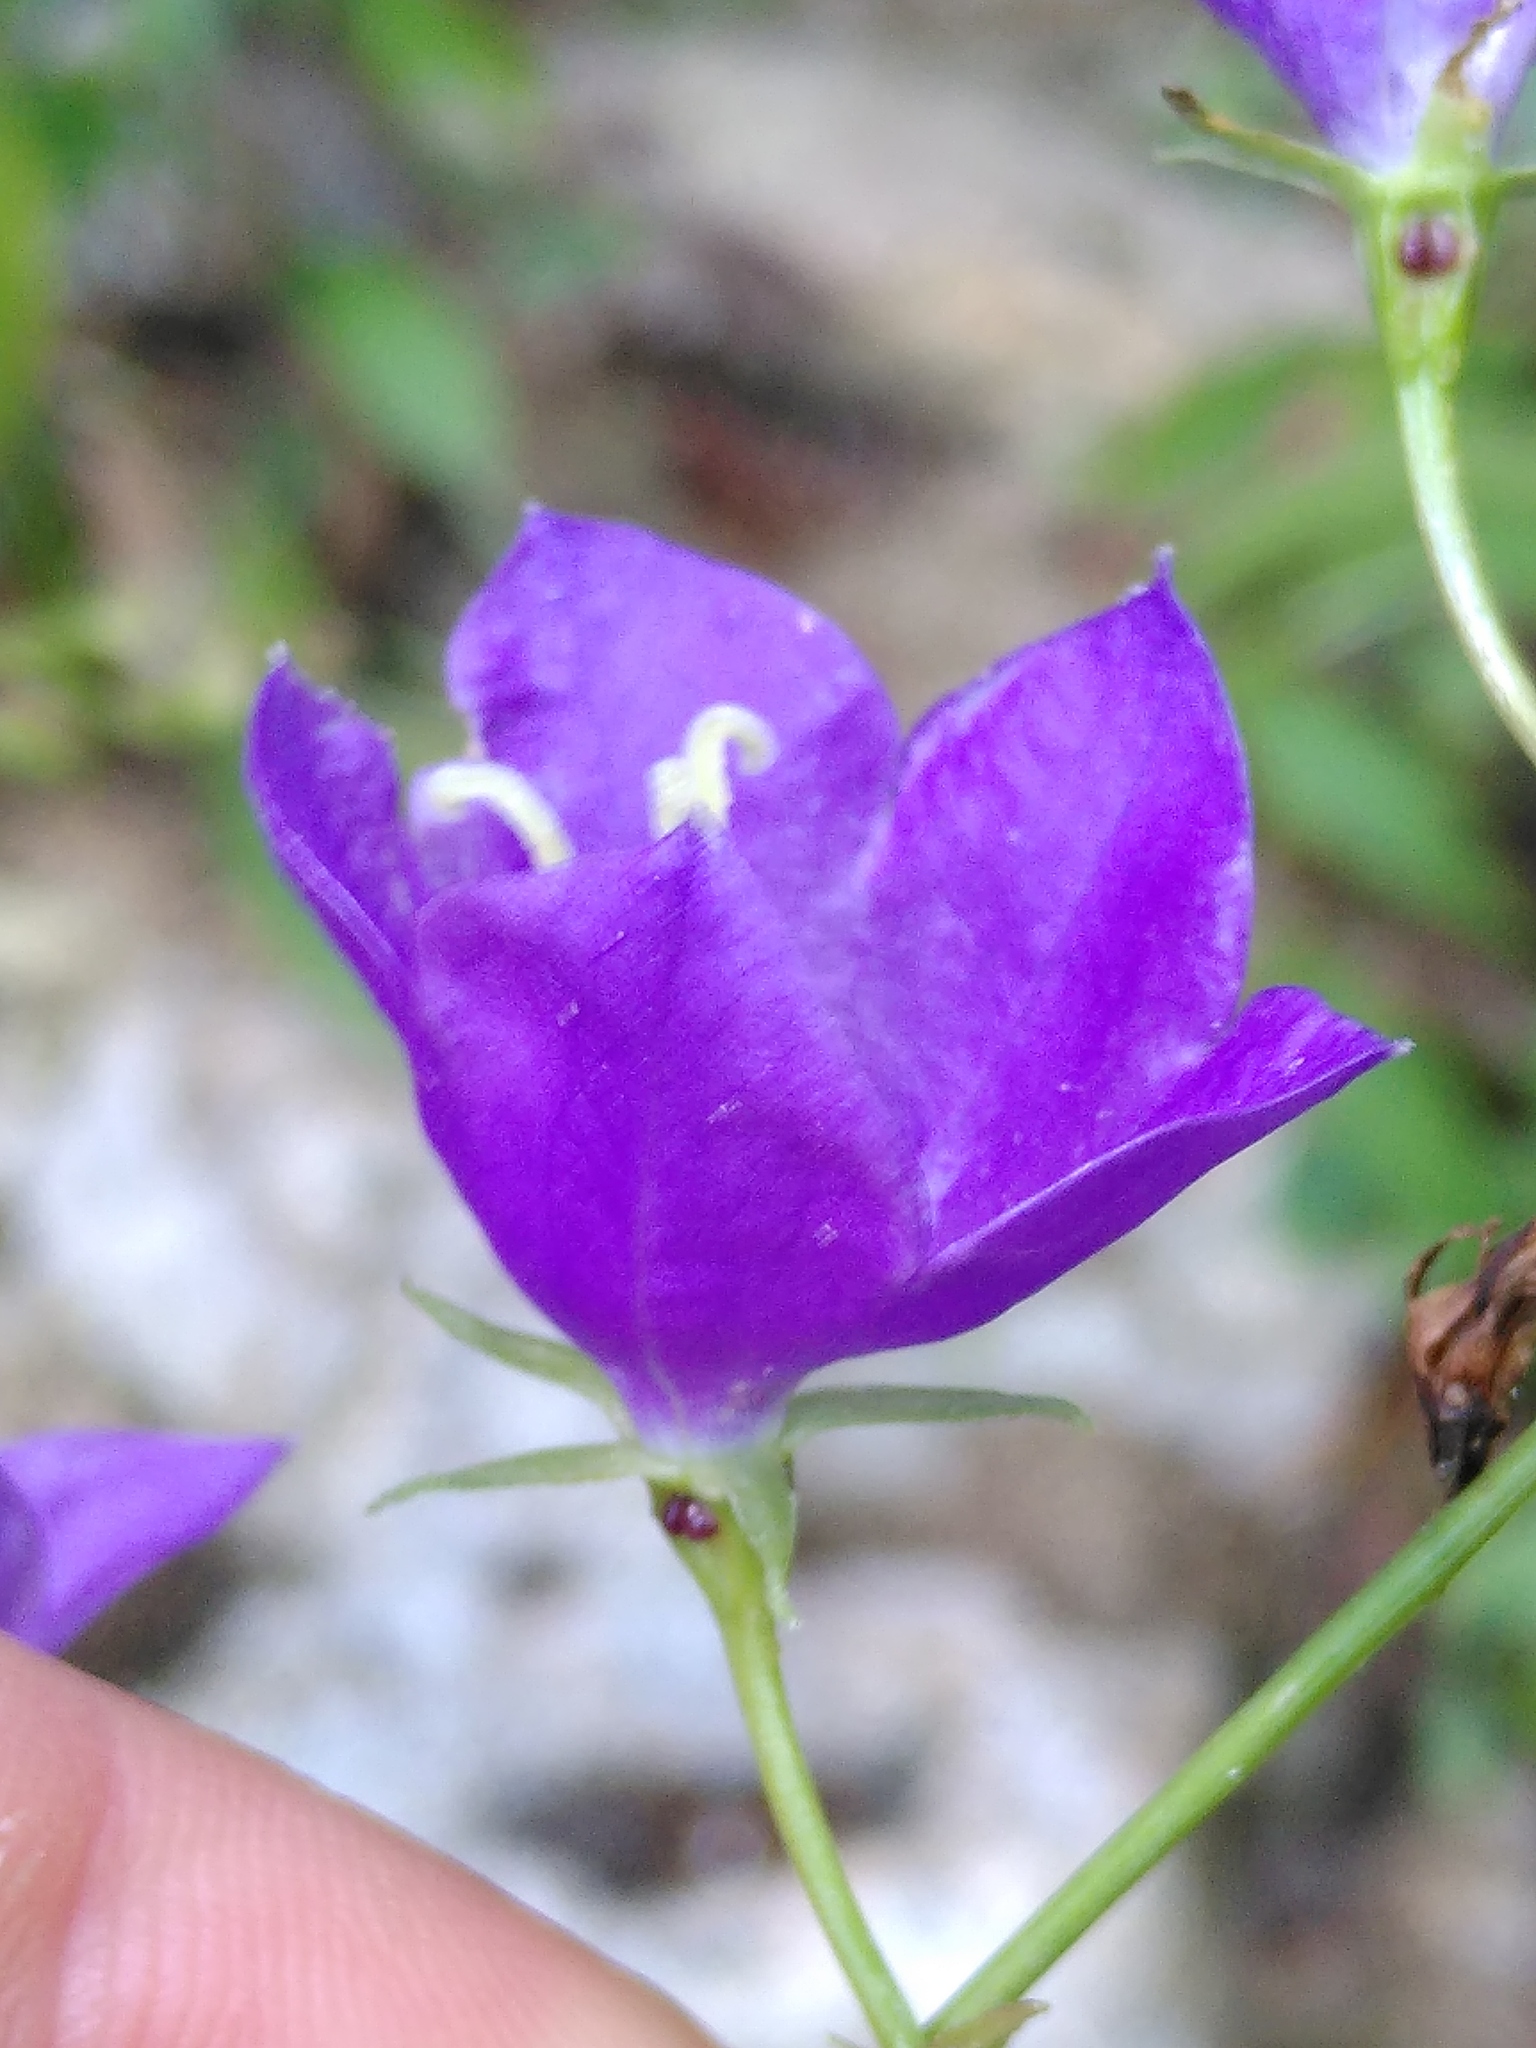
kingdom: Plantae
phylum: Tracheophyta
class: Magnoliopsida
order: Asterales
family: Campanulaceae
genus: Campanula
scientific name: Campanula persicifolia
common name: Peach-leaved bellflower
